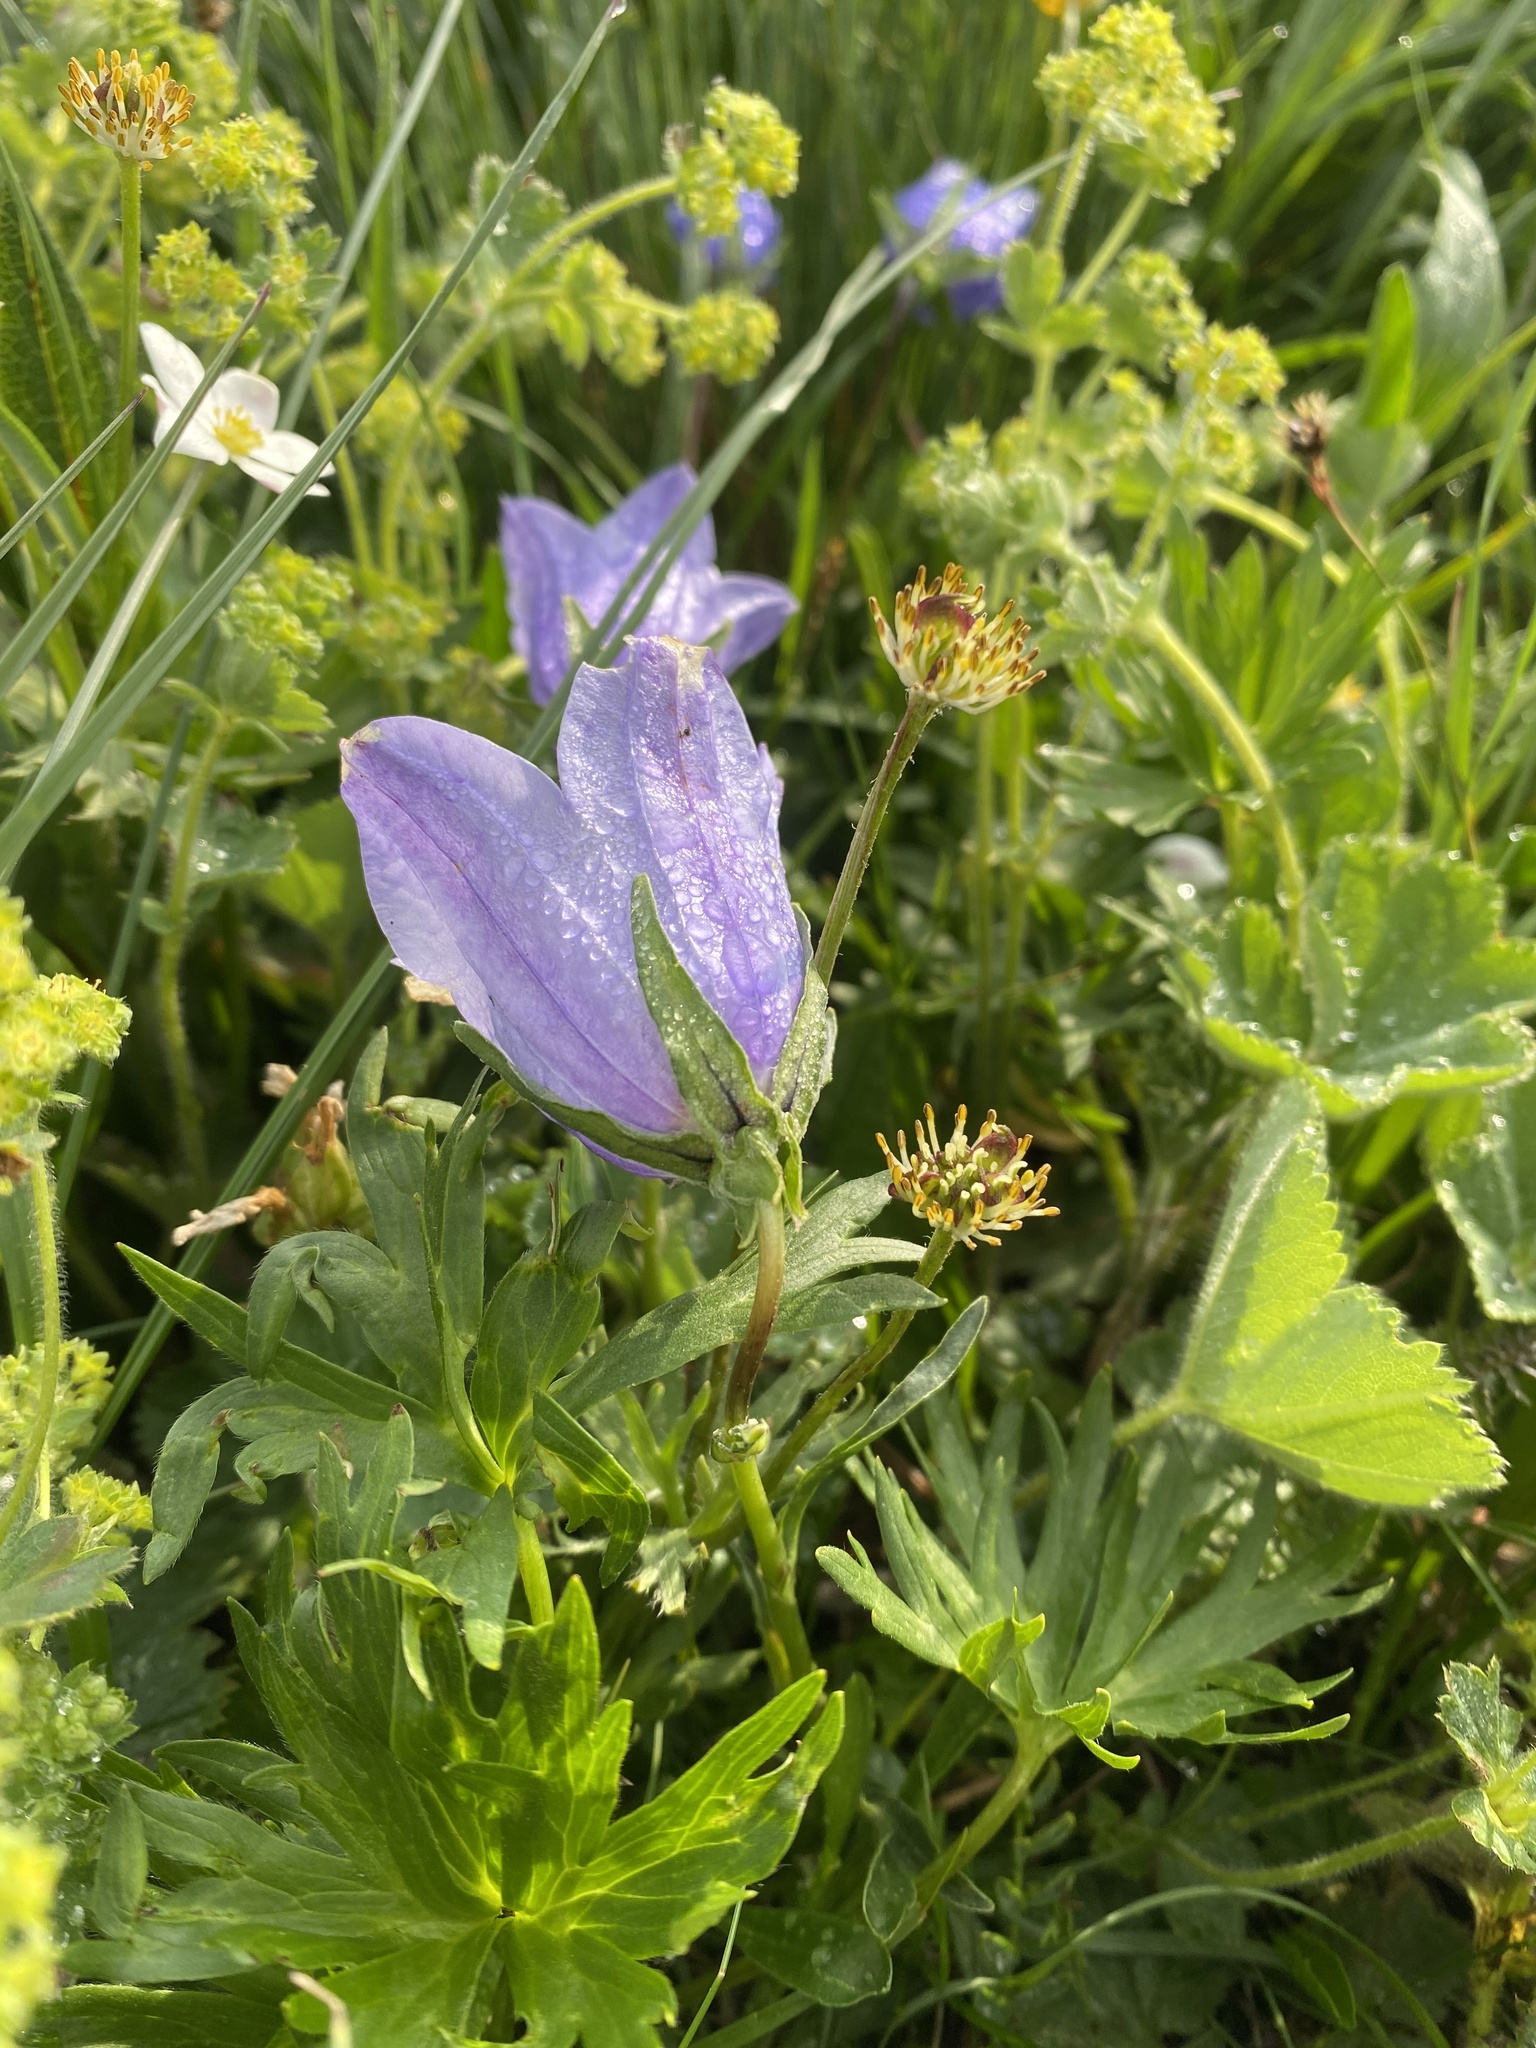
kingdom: Plantae
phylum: Tracheophyta
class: Magnoliopsida
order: Asterales
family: Campanulaceae
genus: Campanula
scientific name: Campanula tridentata
